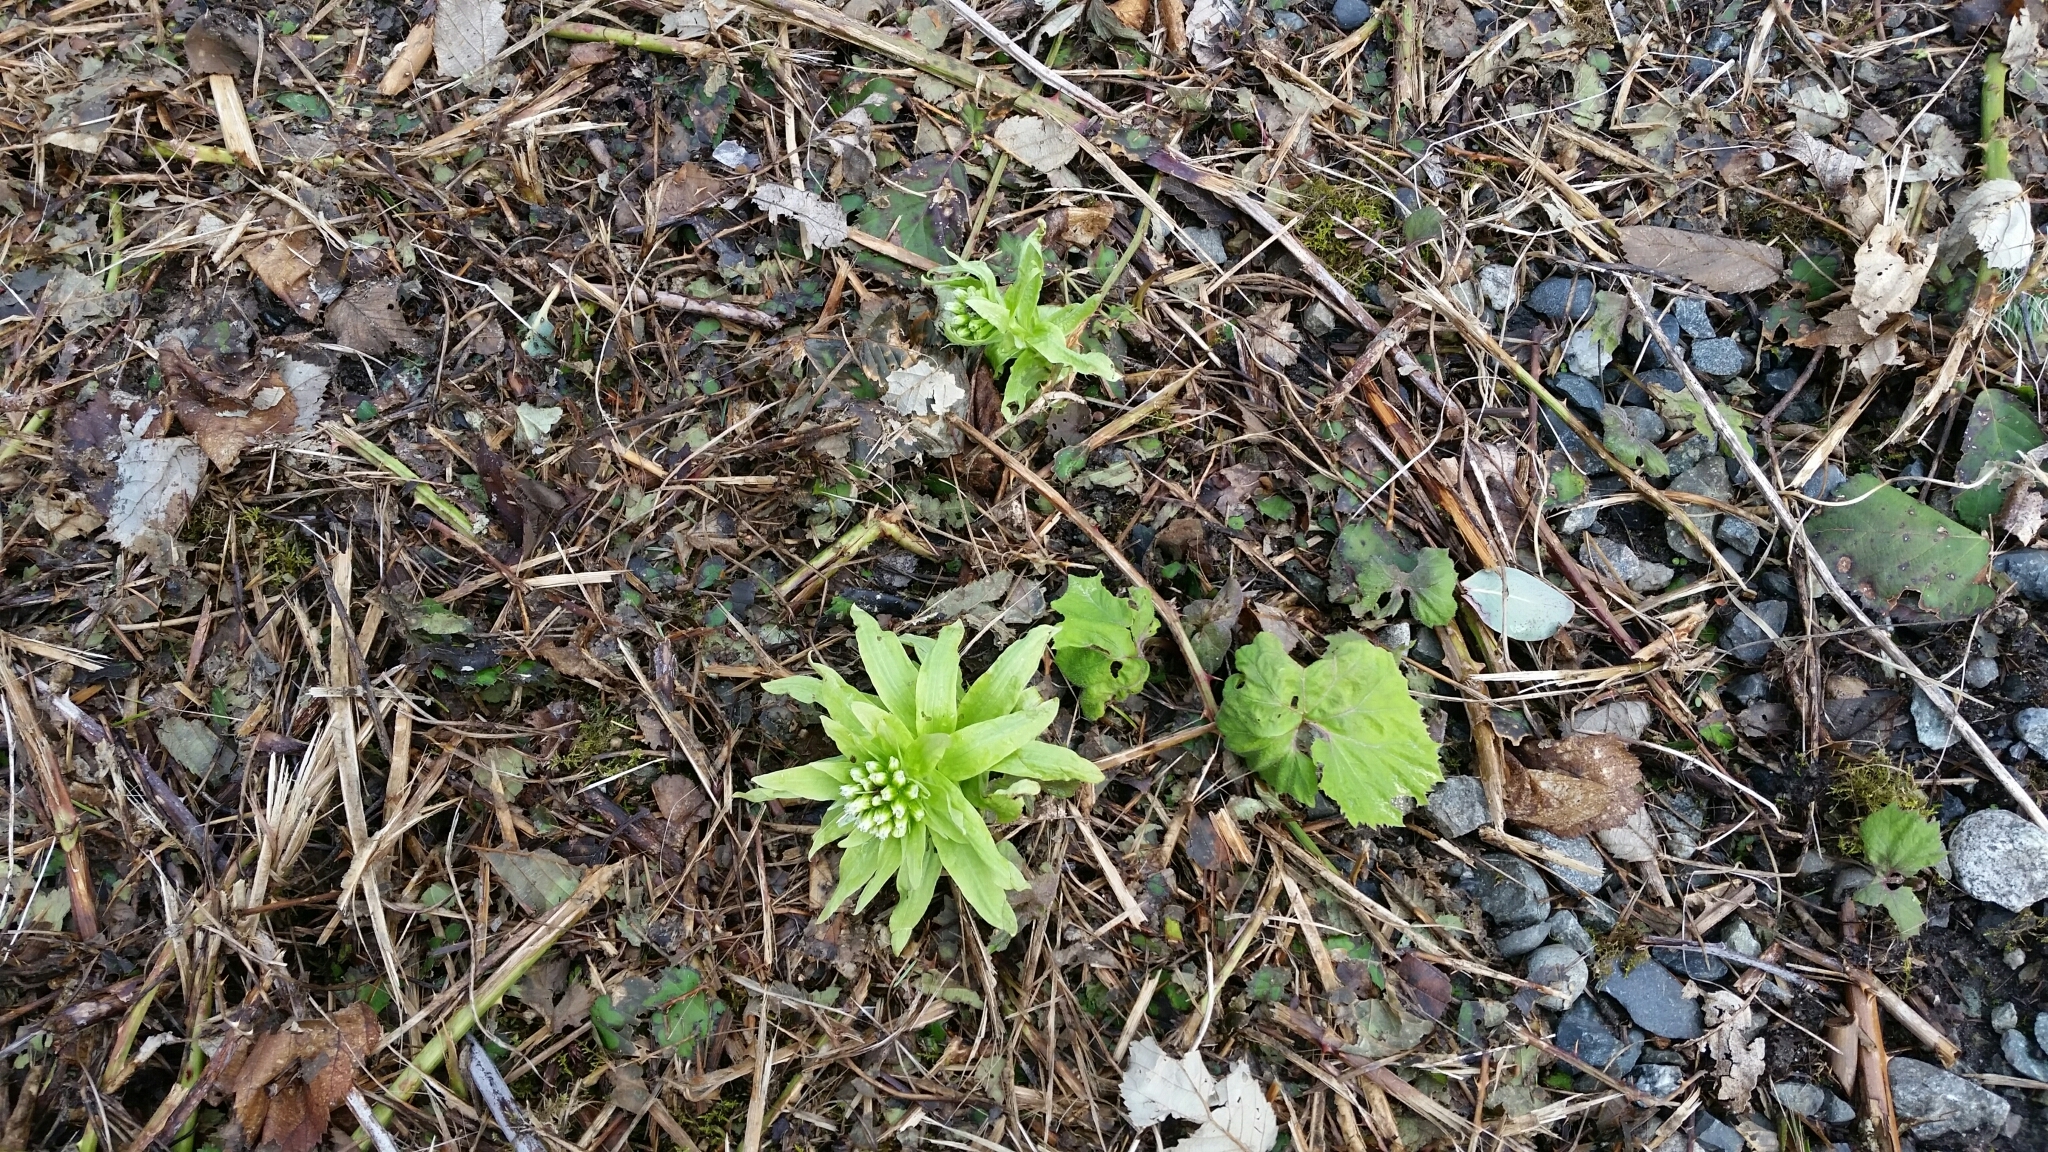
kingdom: Plantae
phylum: Tracheophyta
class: Magnoliopsida
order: Asterales
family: Asteraceae
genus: Petasites
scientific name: Petasites japonicus
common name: Giant butterbur
